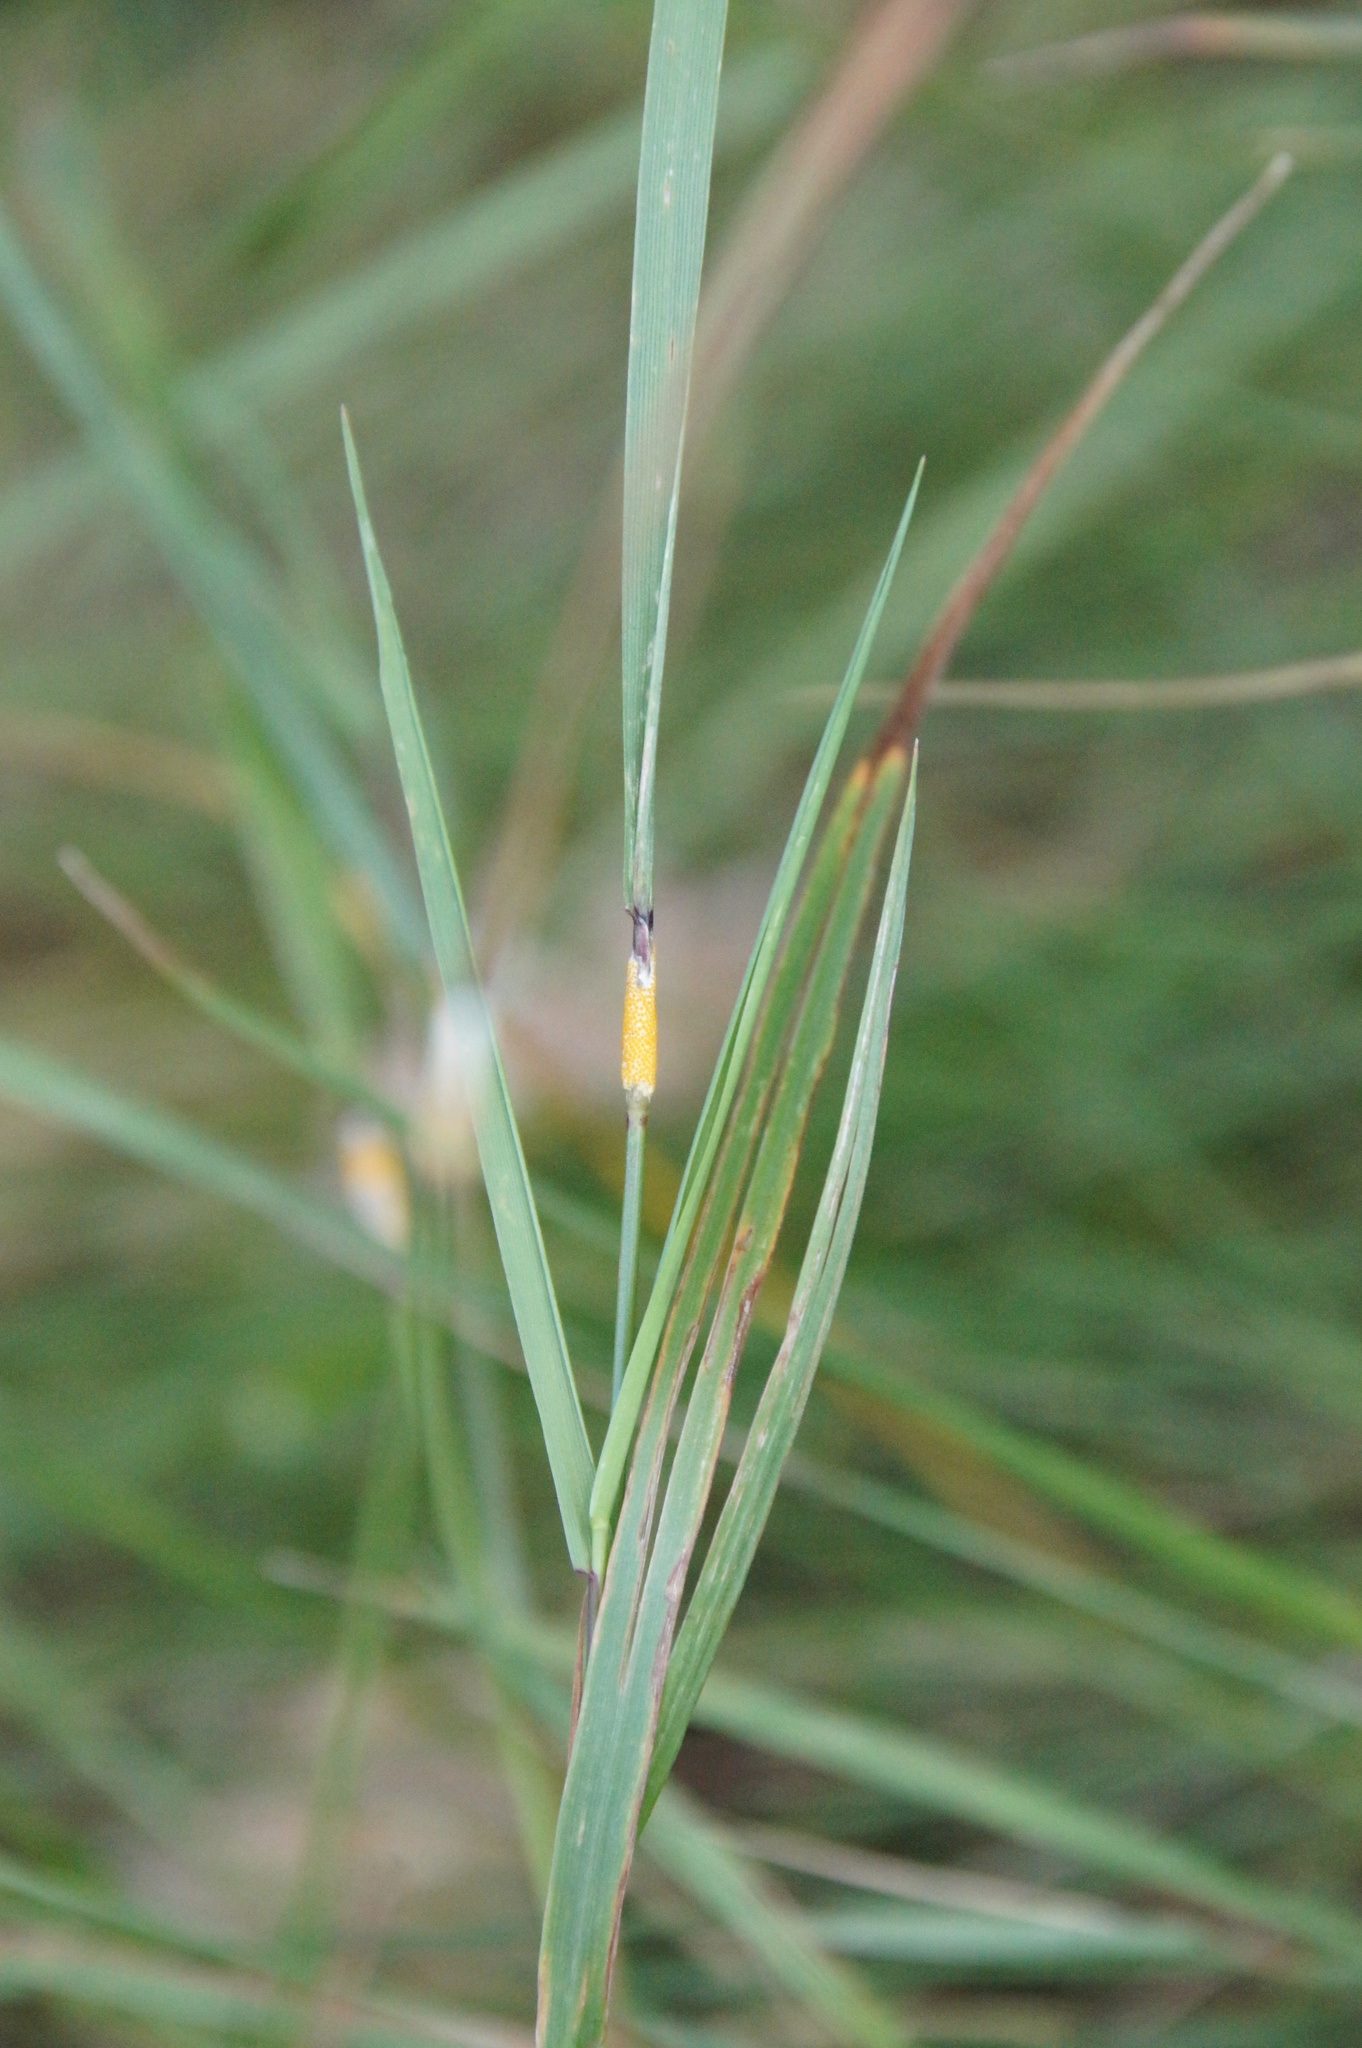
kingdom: Fungi
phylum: Ascomycota
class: Sordariomycetes
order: Hypocreales
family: Clavicipitaceae
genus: Epichloe
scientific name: Epichloe typhina
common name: Choke
